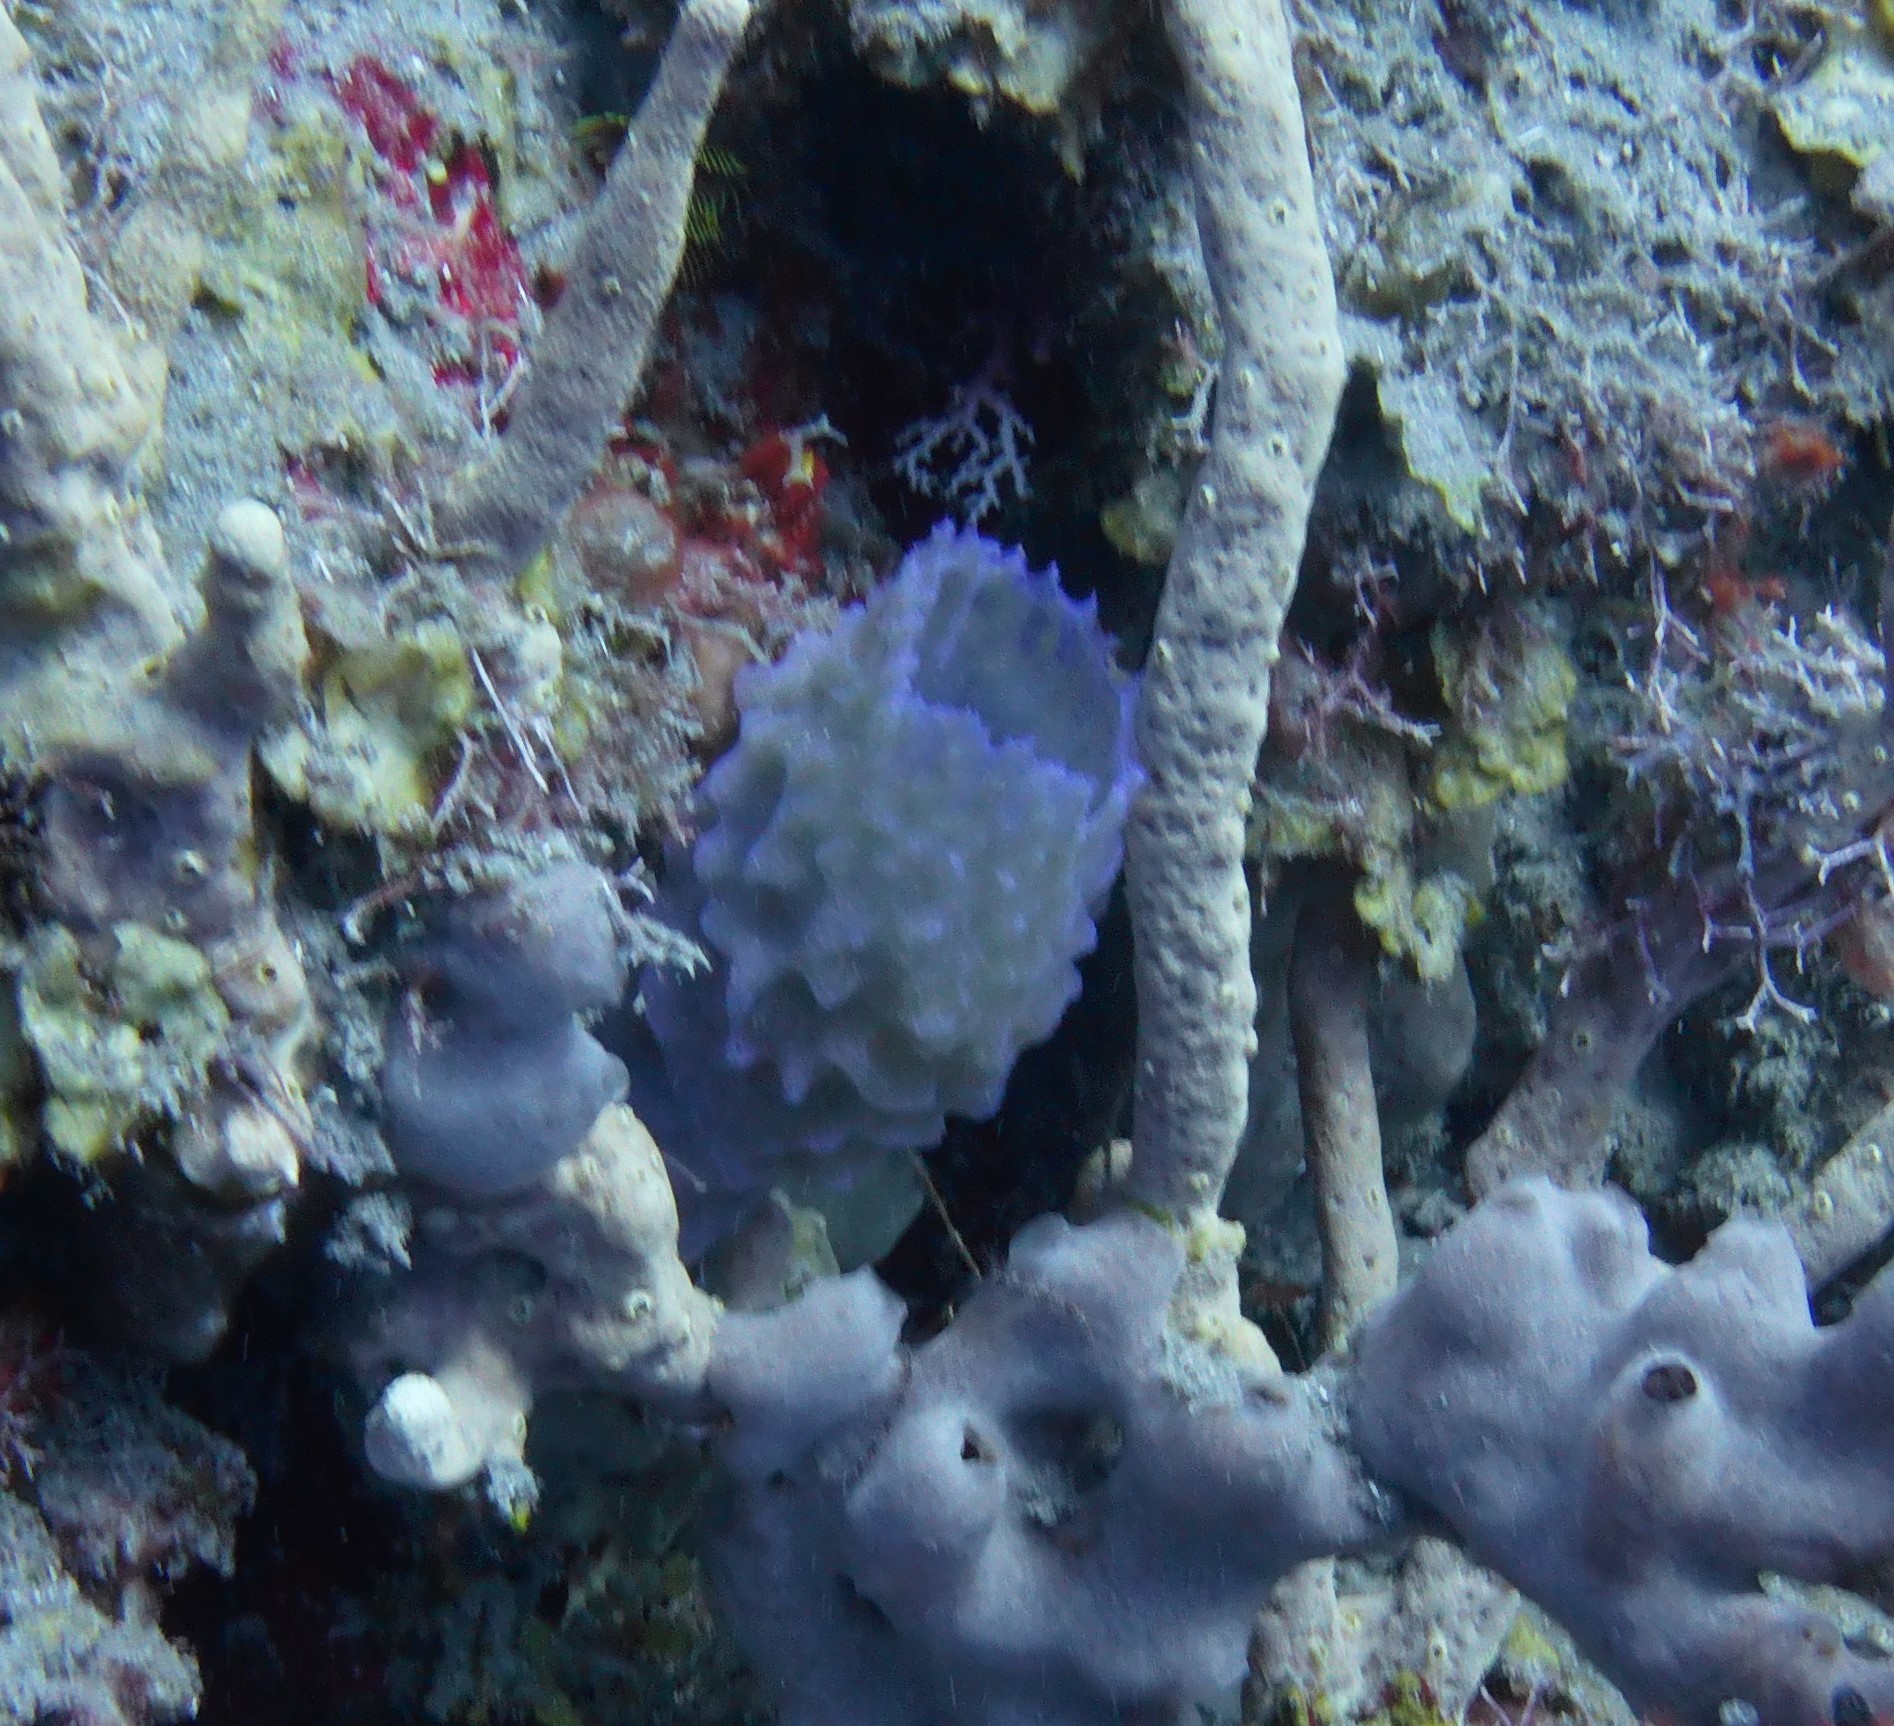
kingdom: Animalia
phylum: Porifera
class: Demospongiae
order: Haplosclerida
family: Callyspongiidae
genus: Callyspongia
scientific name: Callyspongia plicifera
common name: Azure vase sponge
